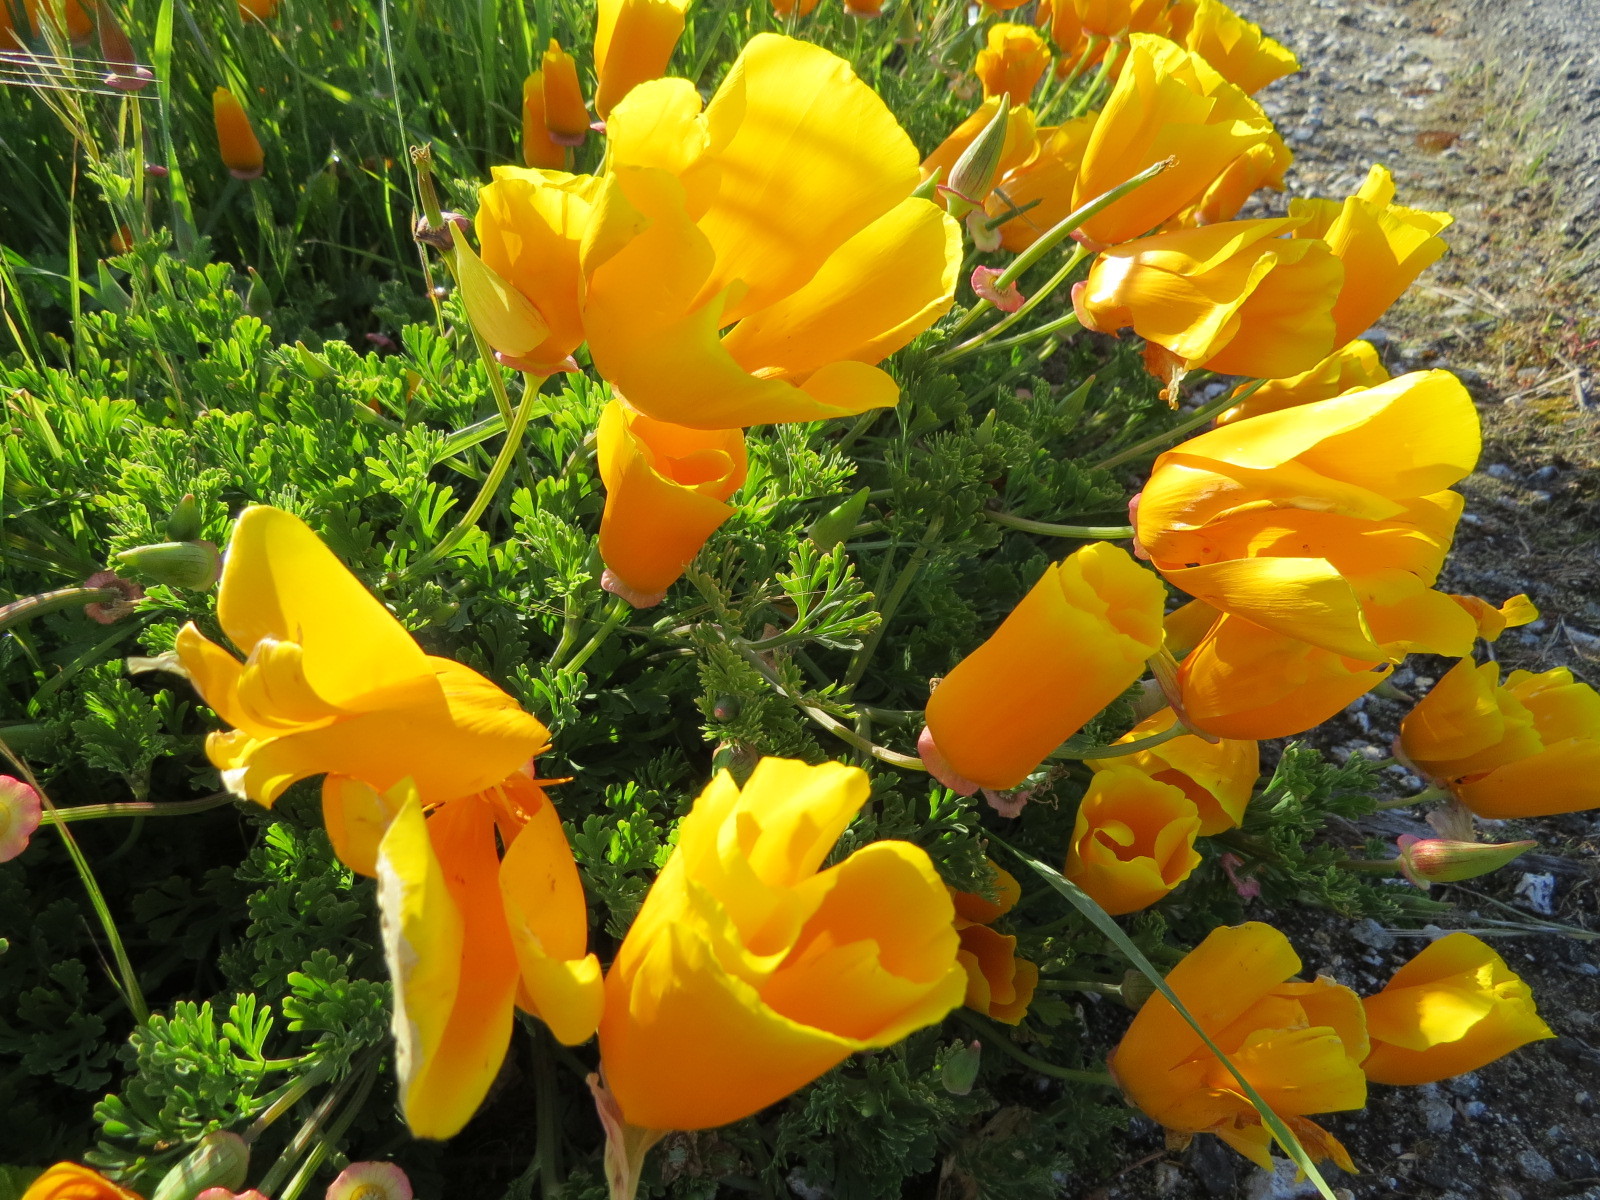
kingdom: Plantae
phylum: Tracheophyta
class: Magnoliopsida
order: Ranunculales
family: Papaveraceae
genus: Eschscholzia
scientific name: Eschscholzia californica
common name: California poppy
